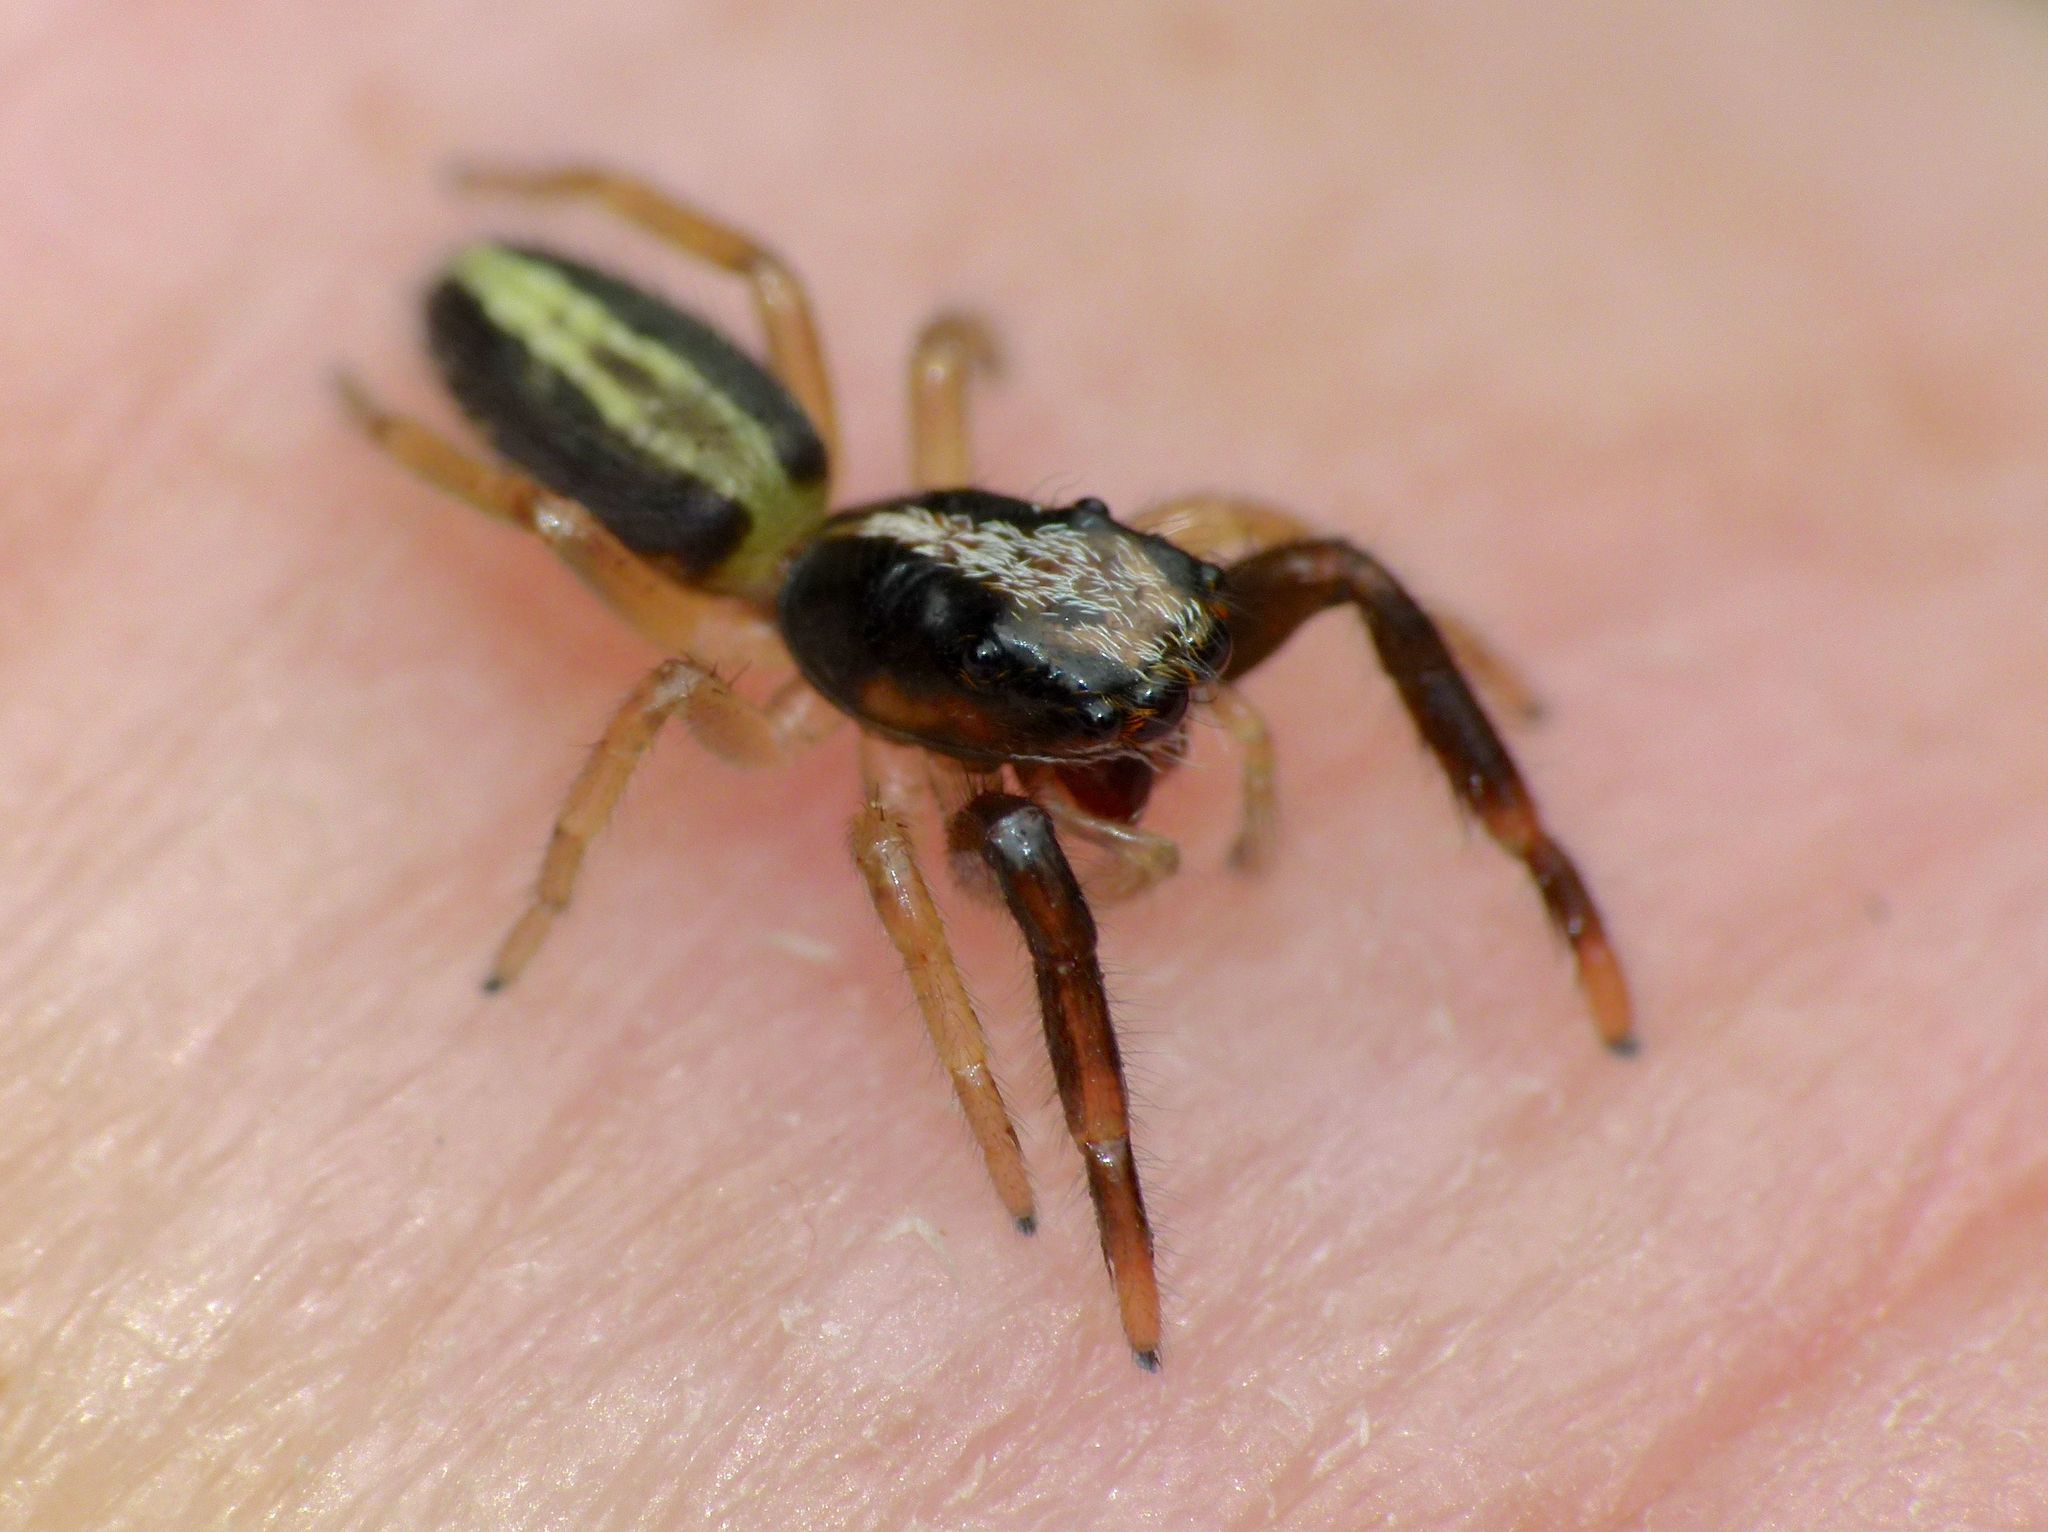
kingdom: Animalia
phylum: Arthropoda
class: Arachnida
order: Araneae
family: Salticidae
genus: Trite
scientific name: Trite planiceps
